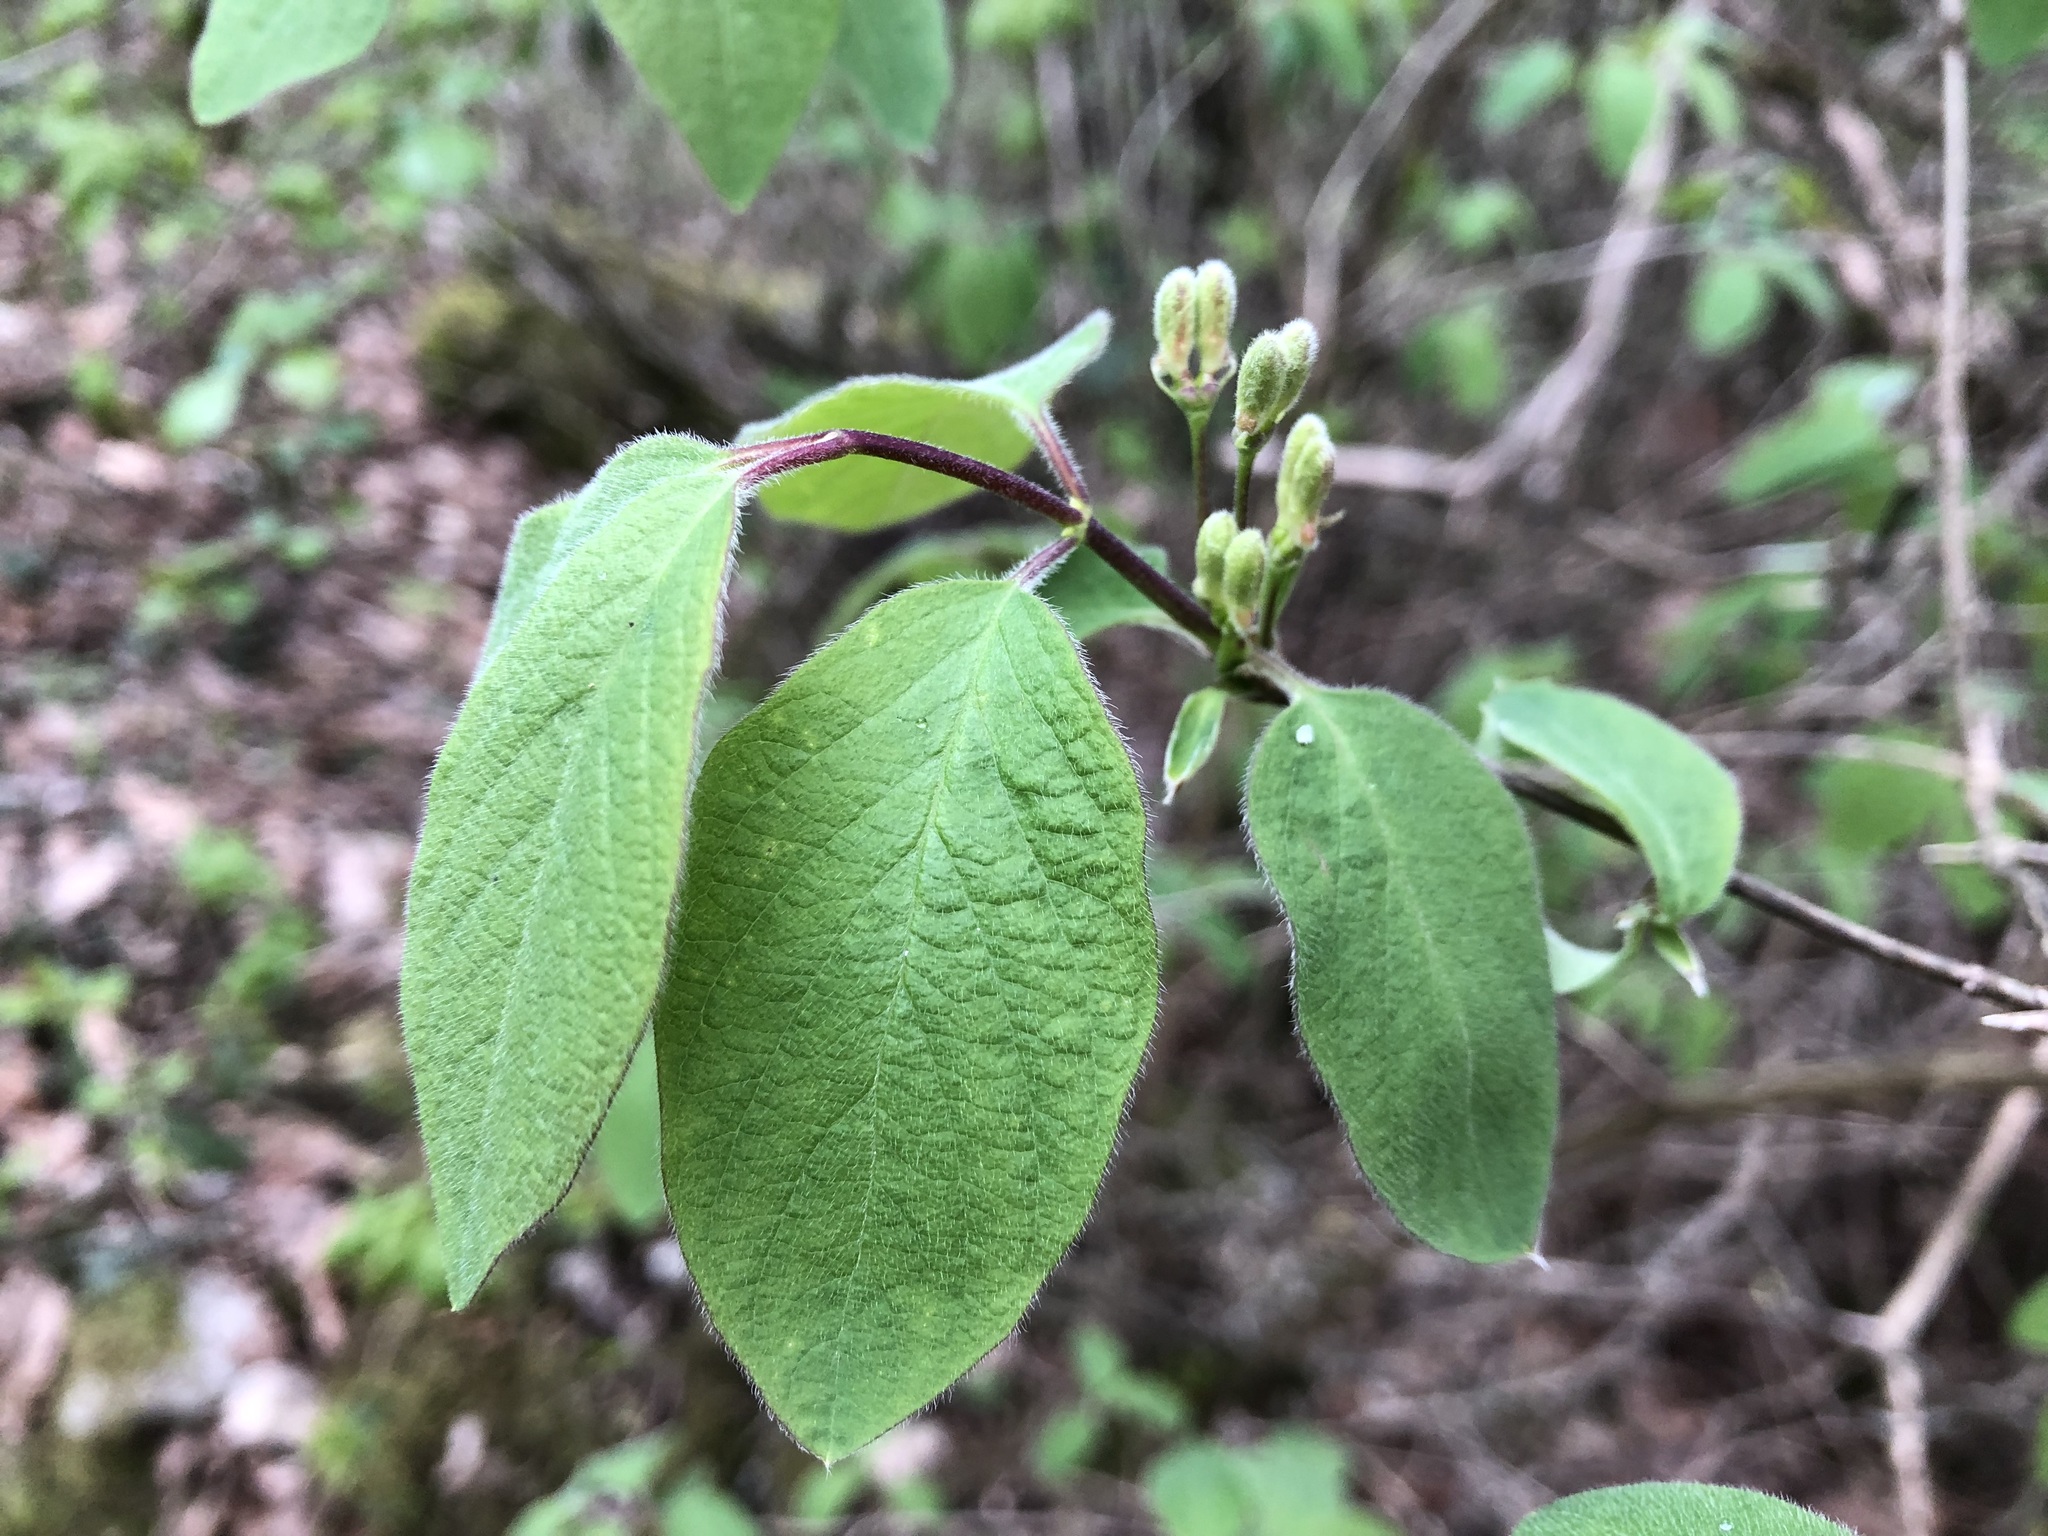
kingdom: Plantae
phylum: Tracheophyta
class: Magnoliopsida
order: Dipsacales
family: Caprifoliaceae
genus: Lonicera
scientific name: Lonicera xylosteum
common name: Fly honeysuckle
